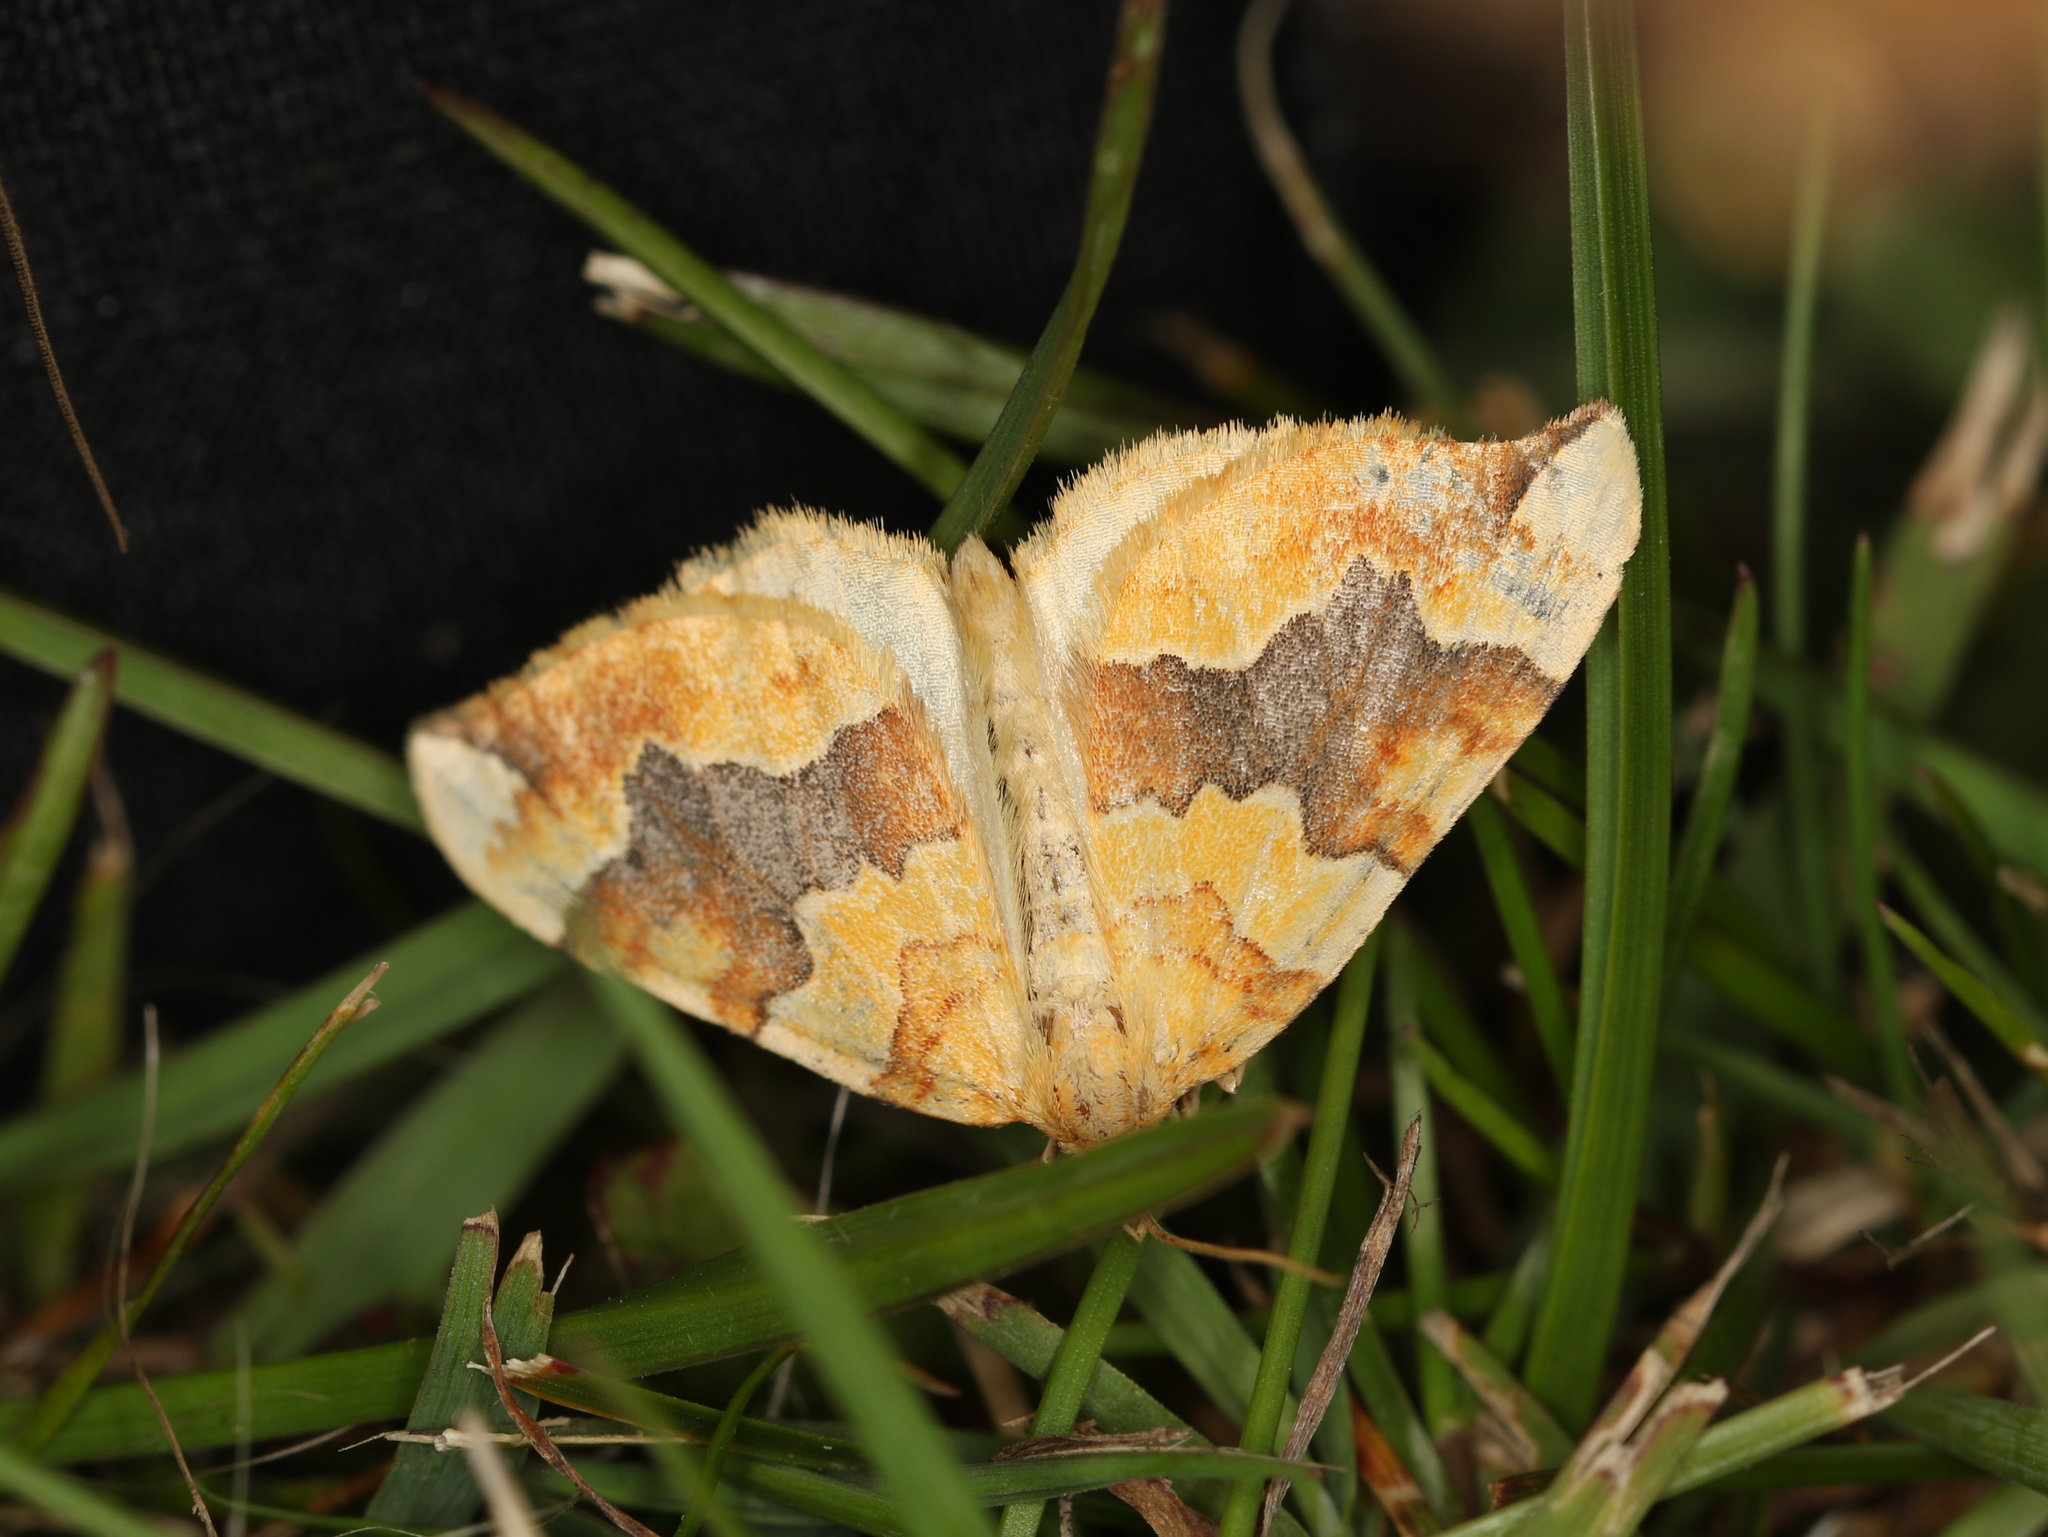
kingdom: Animalia
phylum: Arthropoda
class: Insecta
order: Lepidoptera
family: Geometridae
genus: Cidaria
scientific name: Cidaria fulvata
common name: Barred yellow
